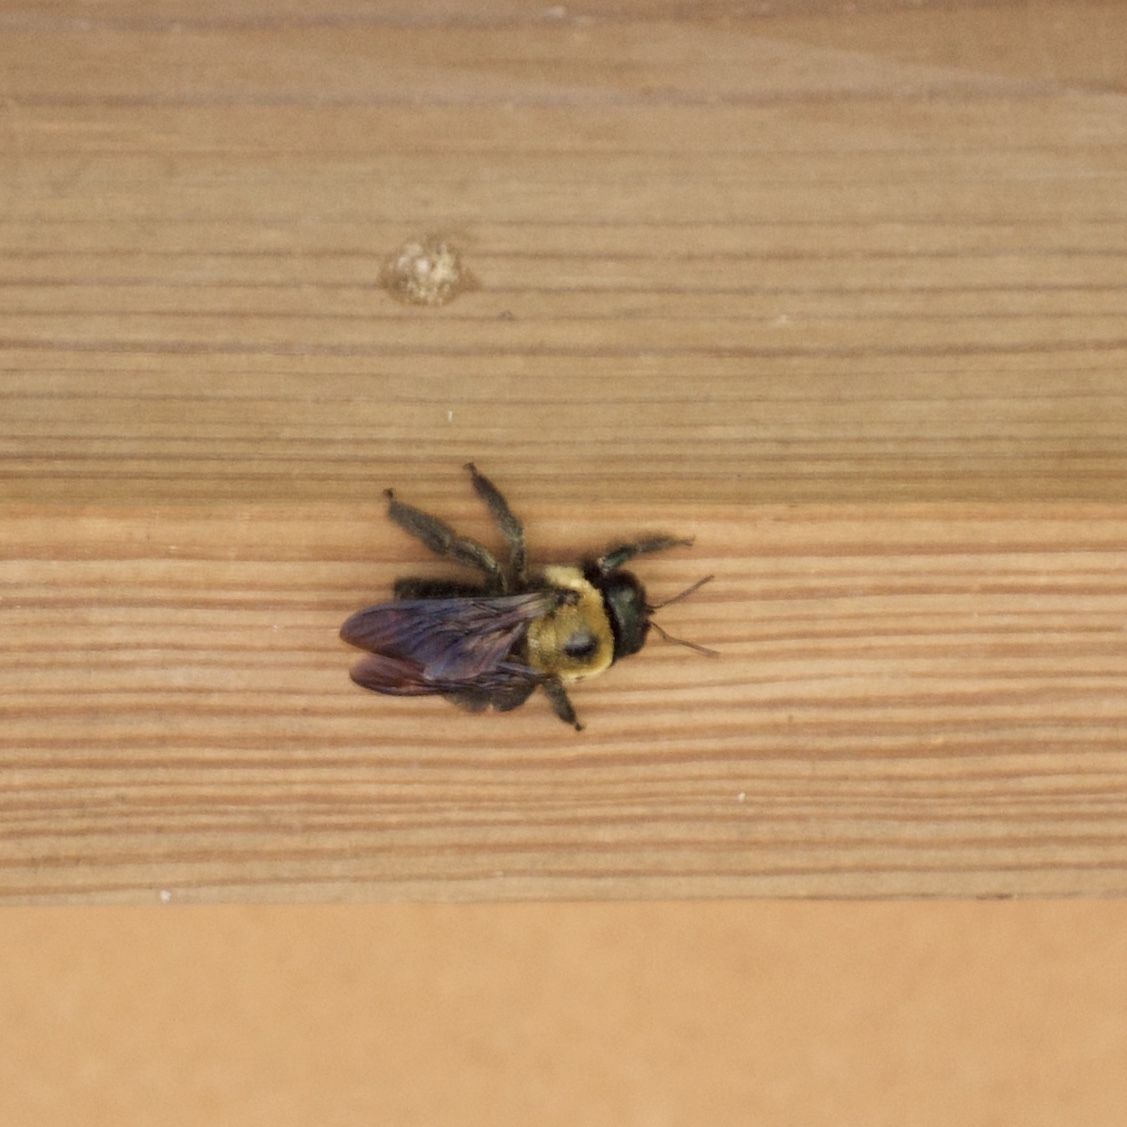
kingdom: Animalia
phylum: Arthropoda
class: Insecta
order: Hymenoptera
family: Apidae
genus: Xylocopa
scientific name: Xylocopa virginica
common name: Carpenter bee
